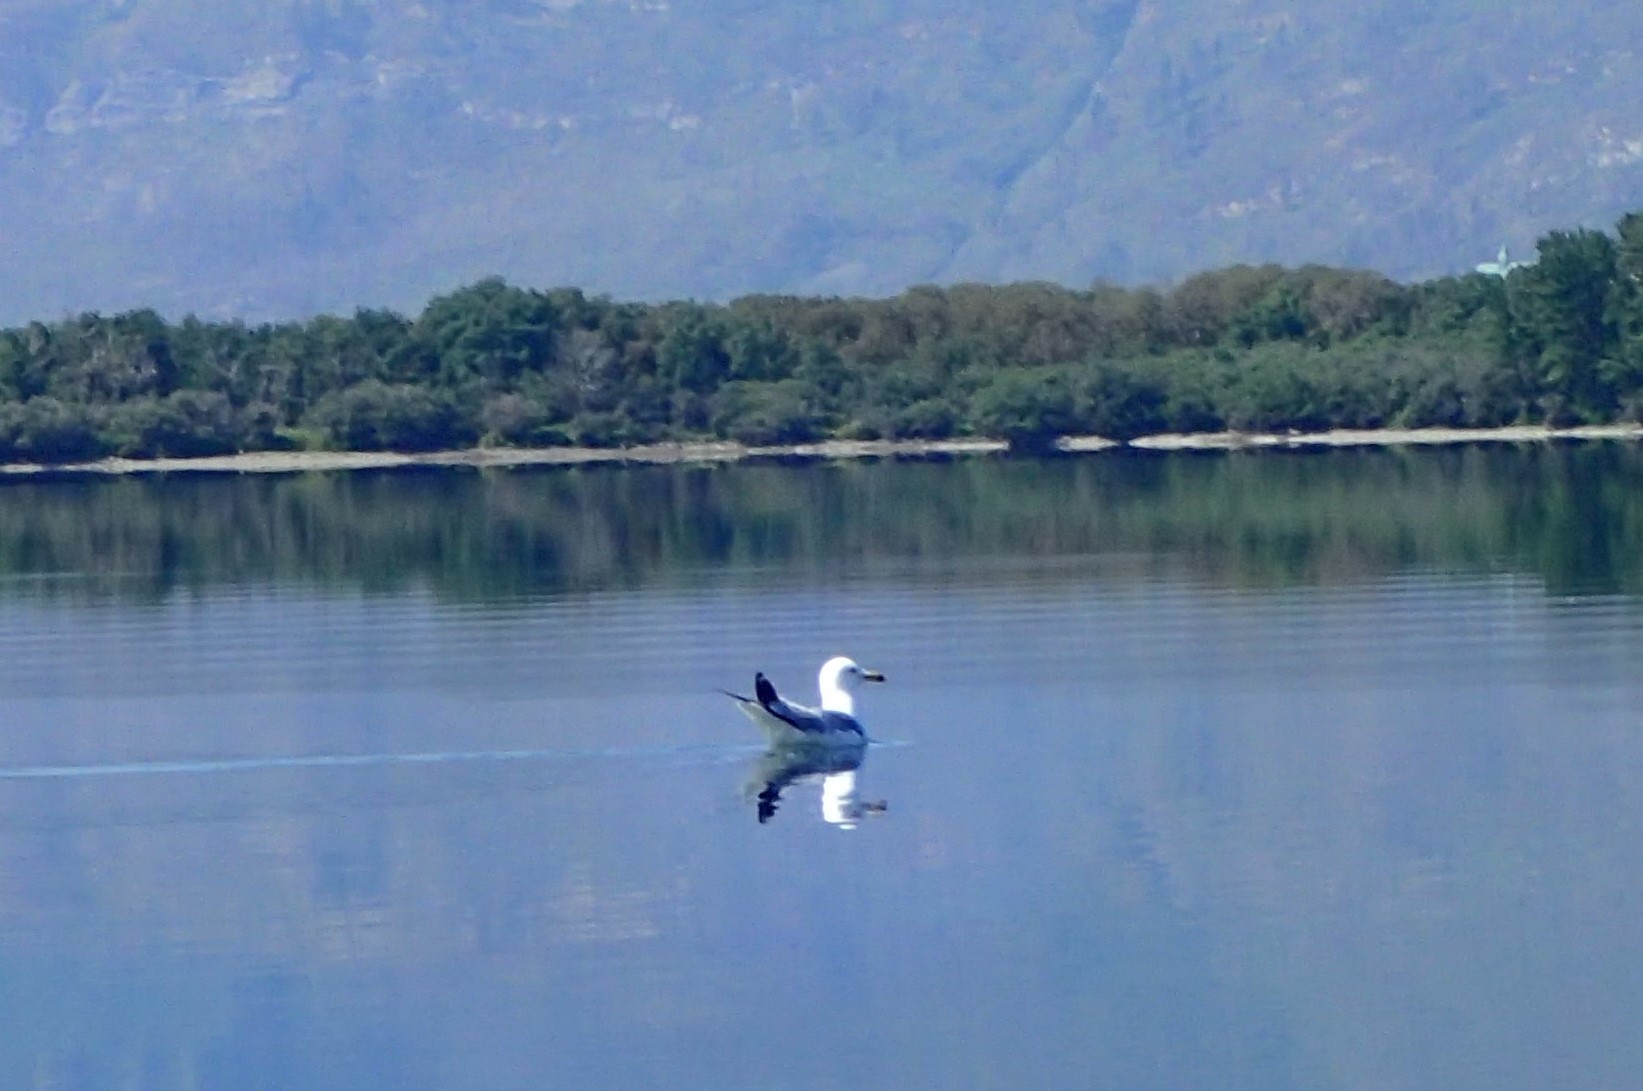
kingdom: Animalia
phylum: Chordata
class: Aves
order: Charadriiformes
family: Laridae
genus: Larus
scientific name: Larus delawarensis
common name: Ring-billed gull
